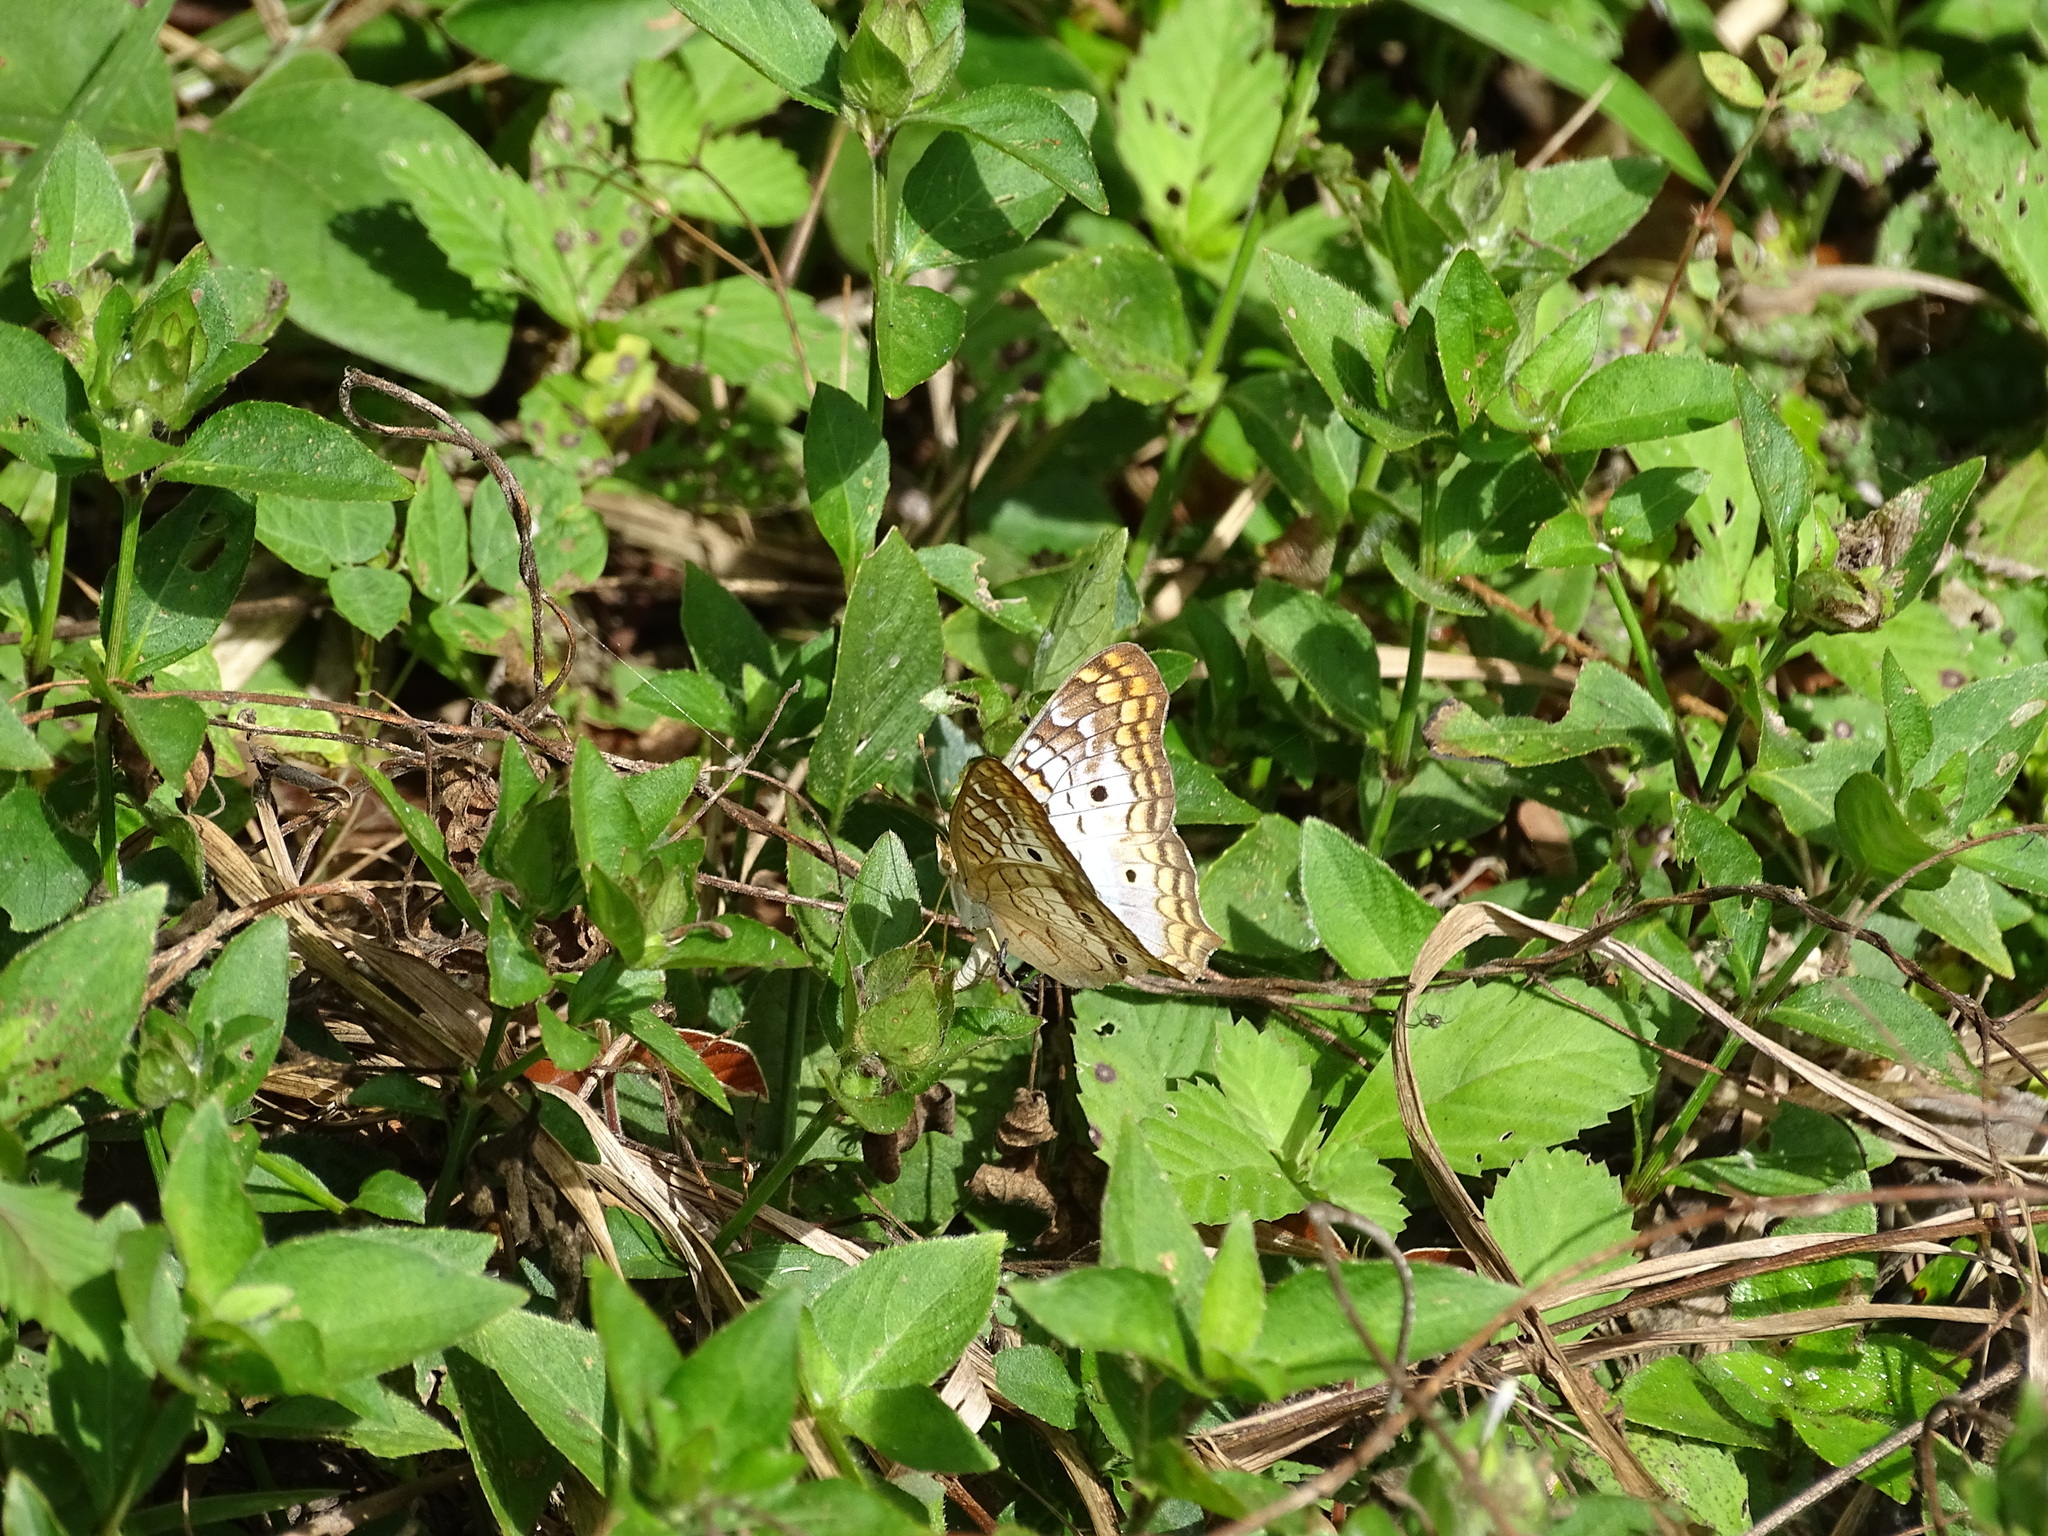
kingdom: Animalia
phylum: Arthropoda
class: Insecta
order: Lepidoptera
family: Nymphalidae
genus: Anartia
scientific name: Anartia jatrophae
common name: White peacock
